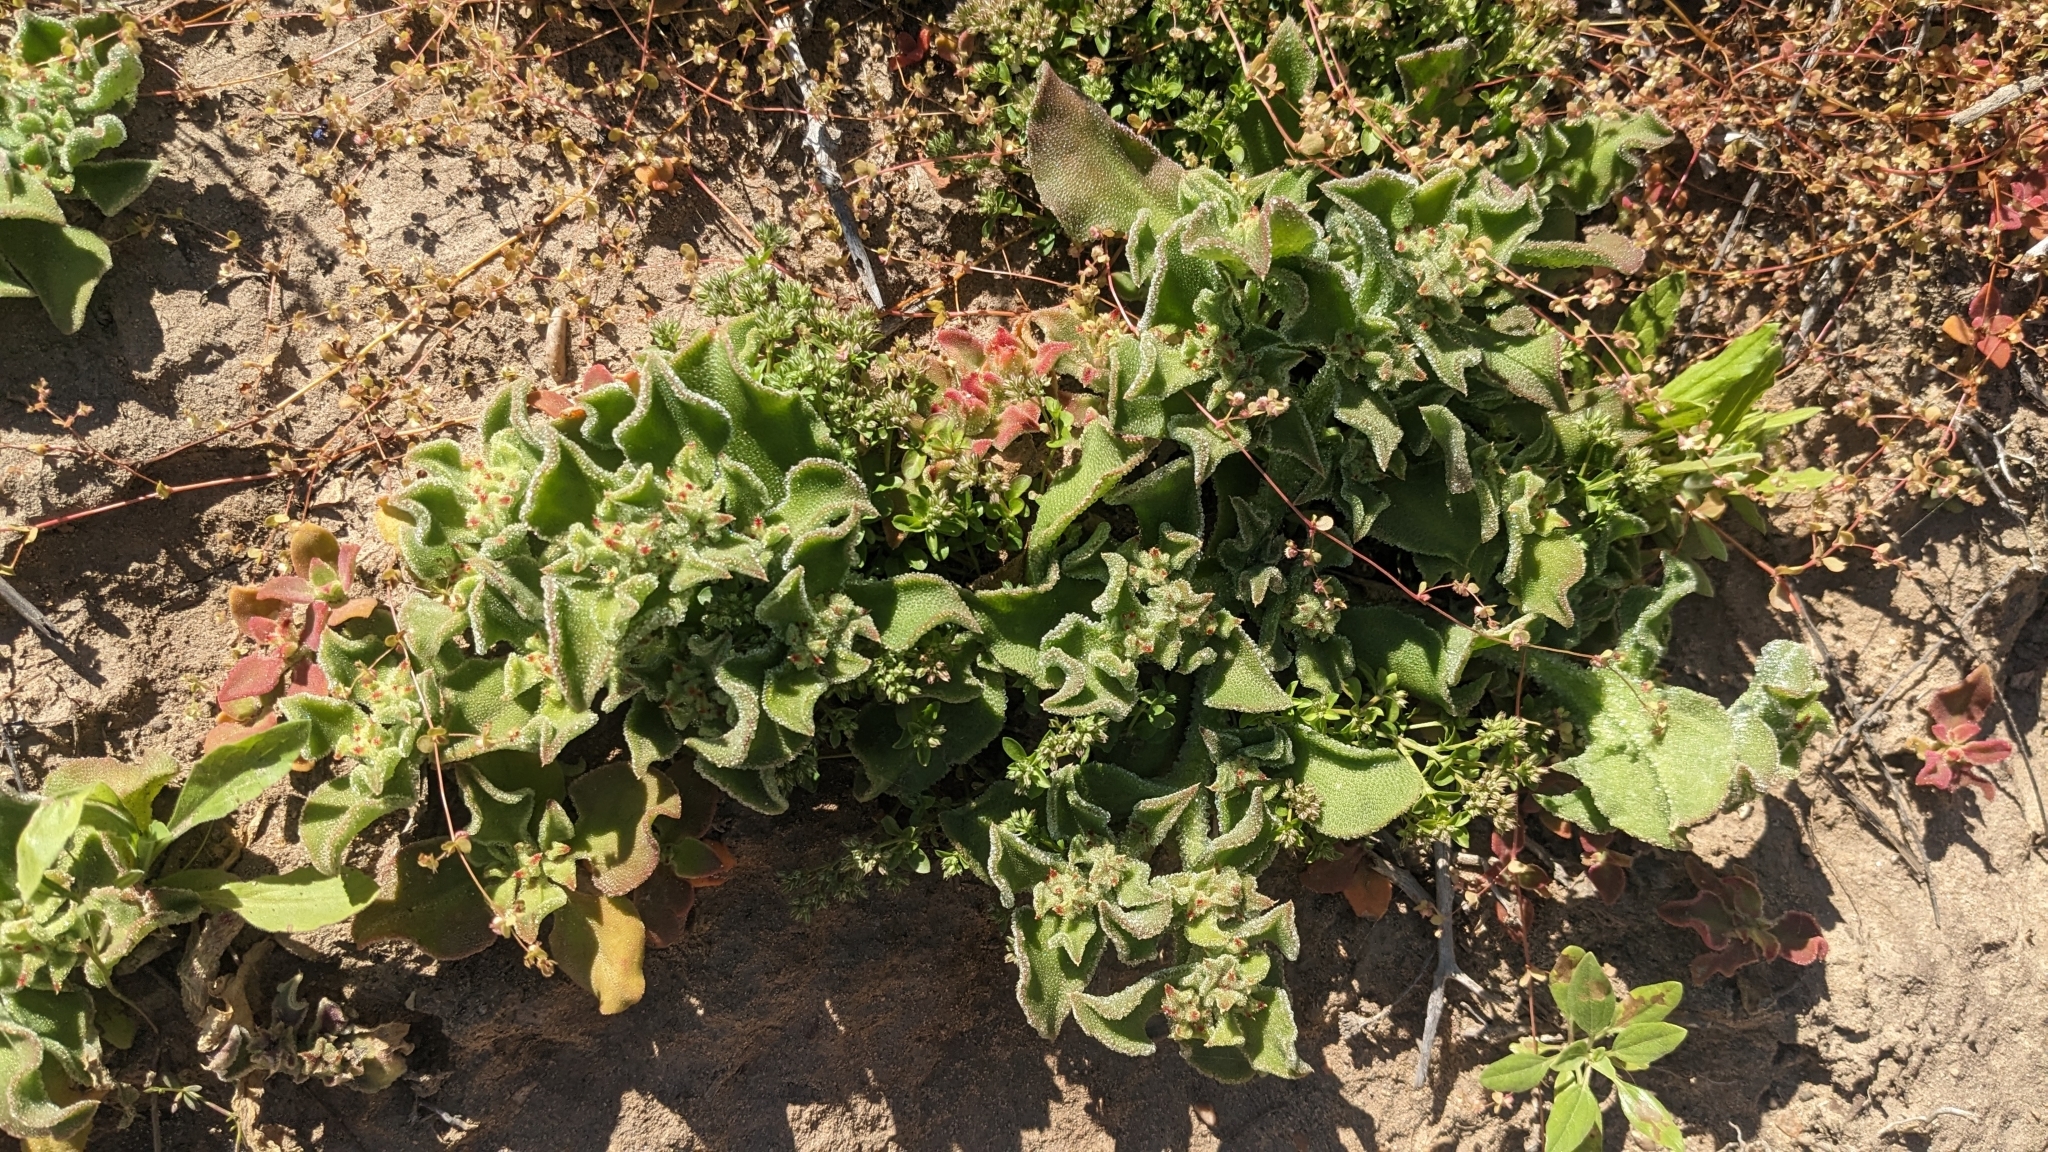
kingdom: Plantae
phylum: Tracheophyta
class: Magnoliopsida
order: Caryophyllales
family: Aizoaceae
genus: Mesembryanthemum
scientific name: Mesembryanthemum crystallinum
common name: Common iceplant
